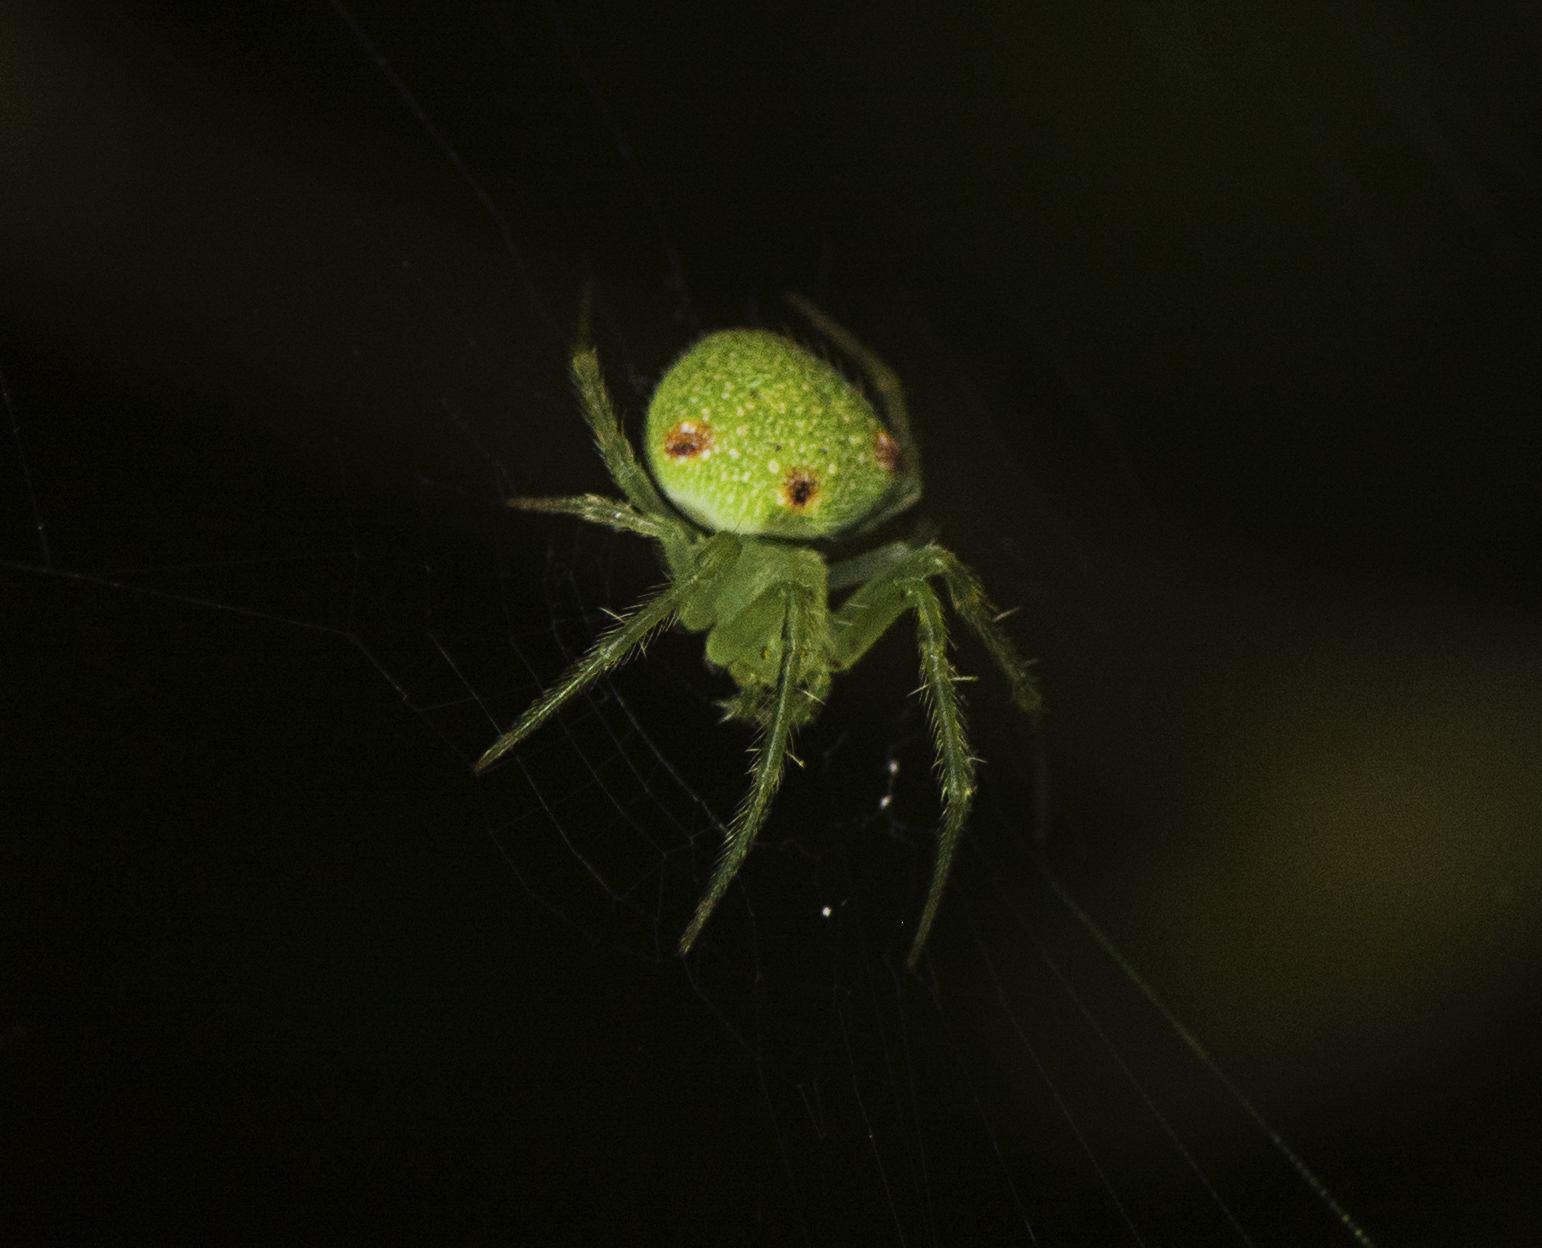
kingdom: Animalia
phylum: Arthropoda
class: Arachnida
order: Araneae
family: Araneidae
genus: Araneus
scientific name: Araneus circulissparsus
